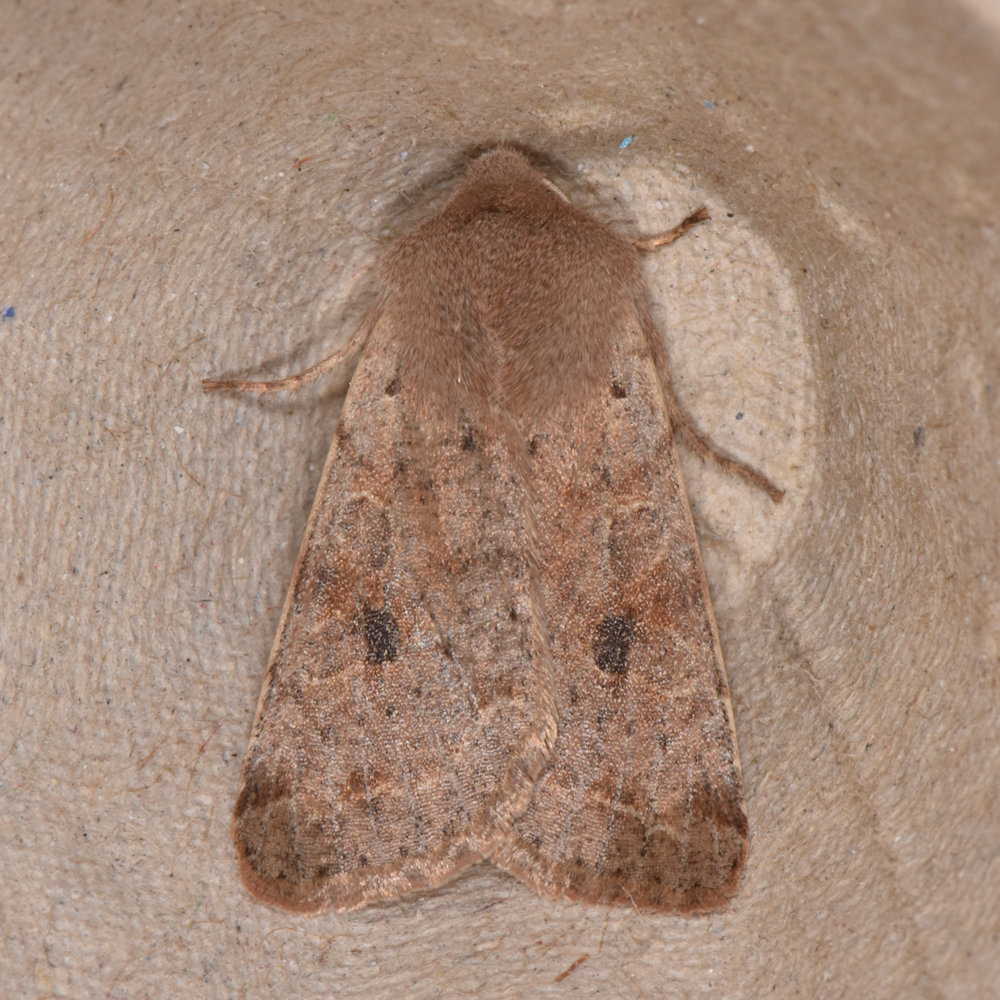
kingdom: Animalia
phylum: Arthropoda
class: Insecta
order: Lepidoptera
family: Noctuidae
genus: Orthosia
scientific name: Orthosia hibisci
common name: Green fruitworm
